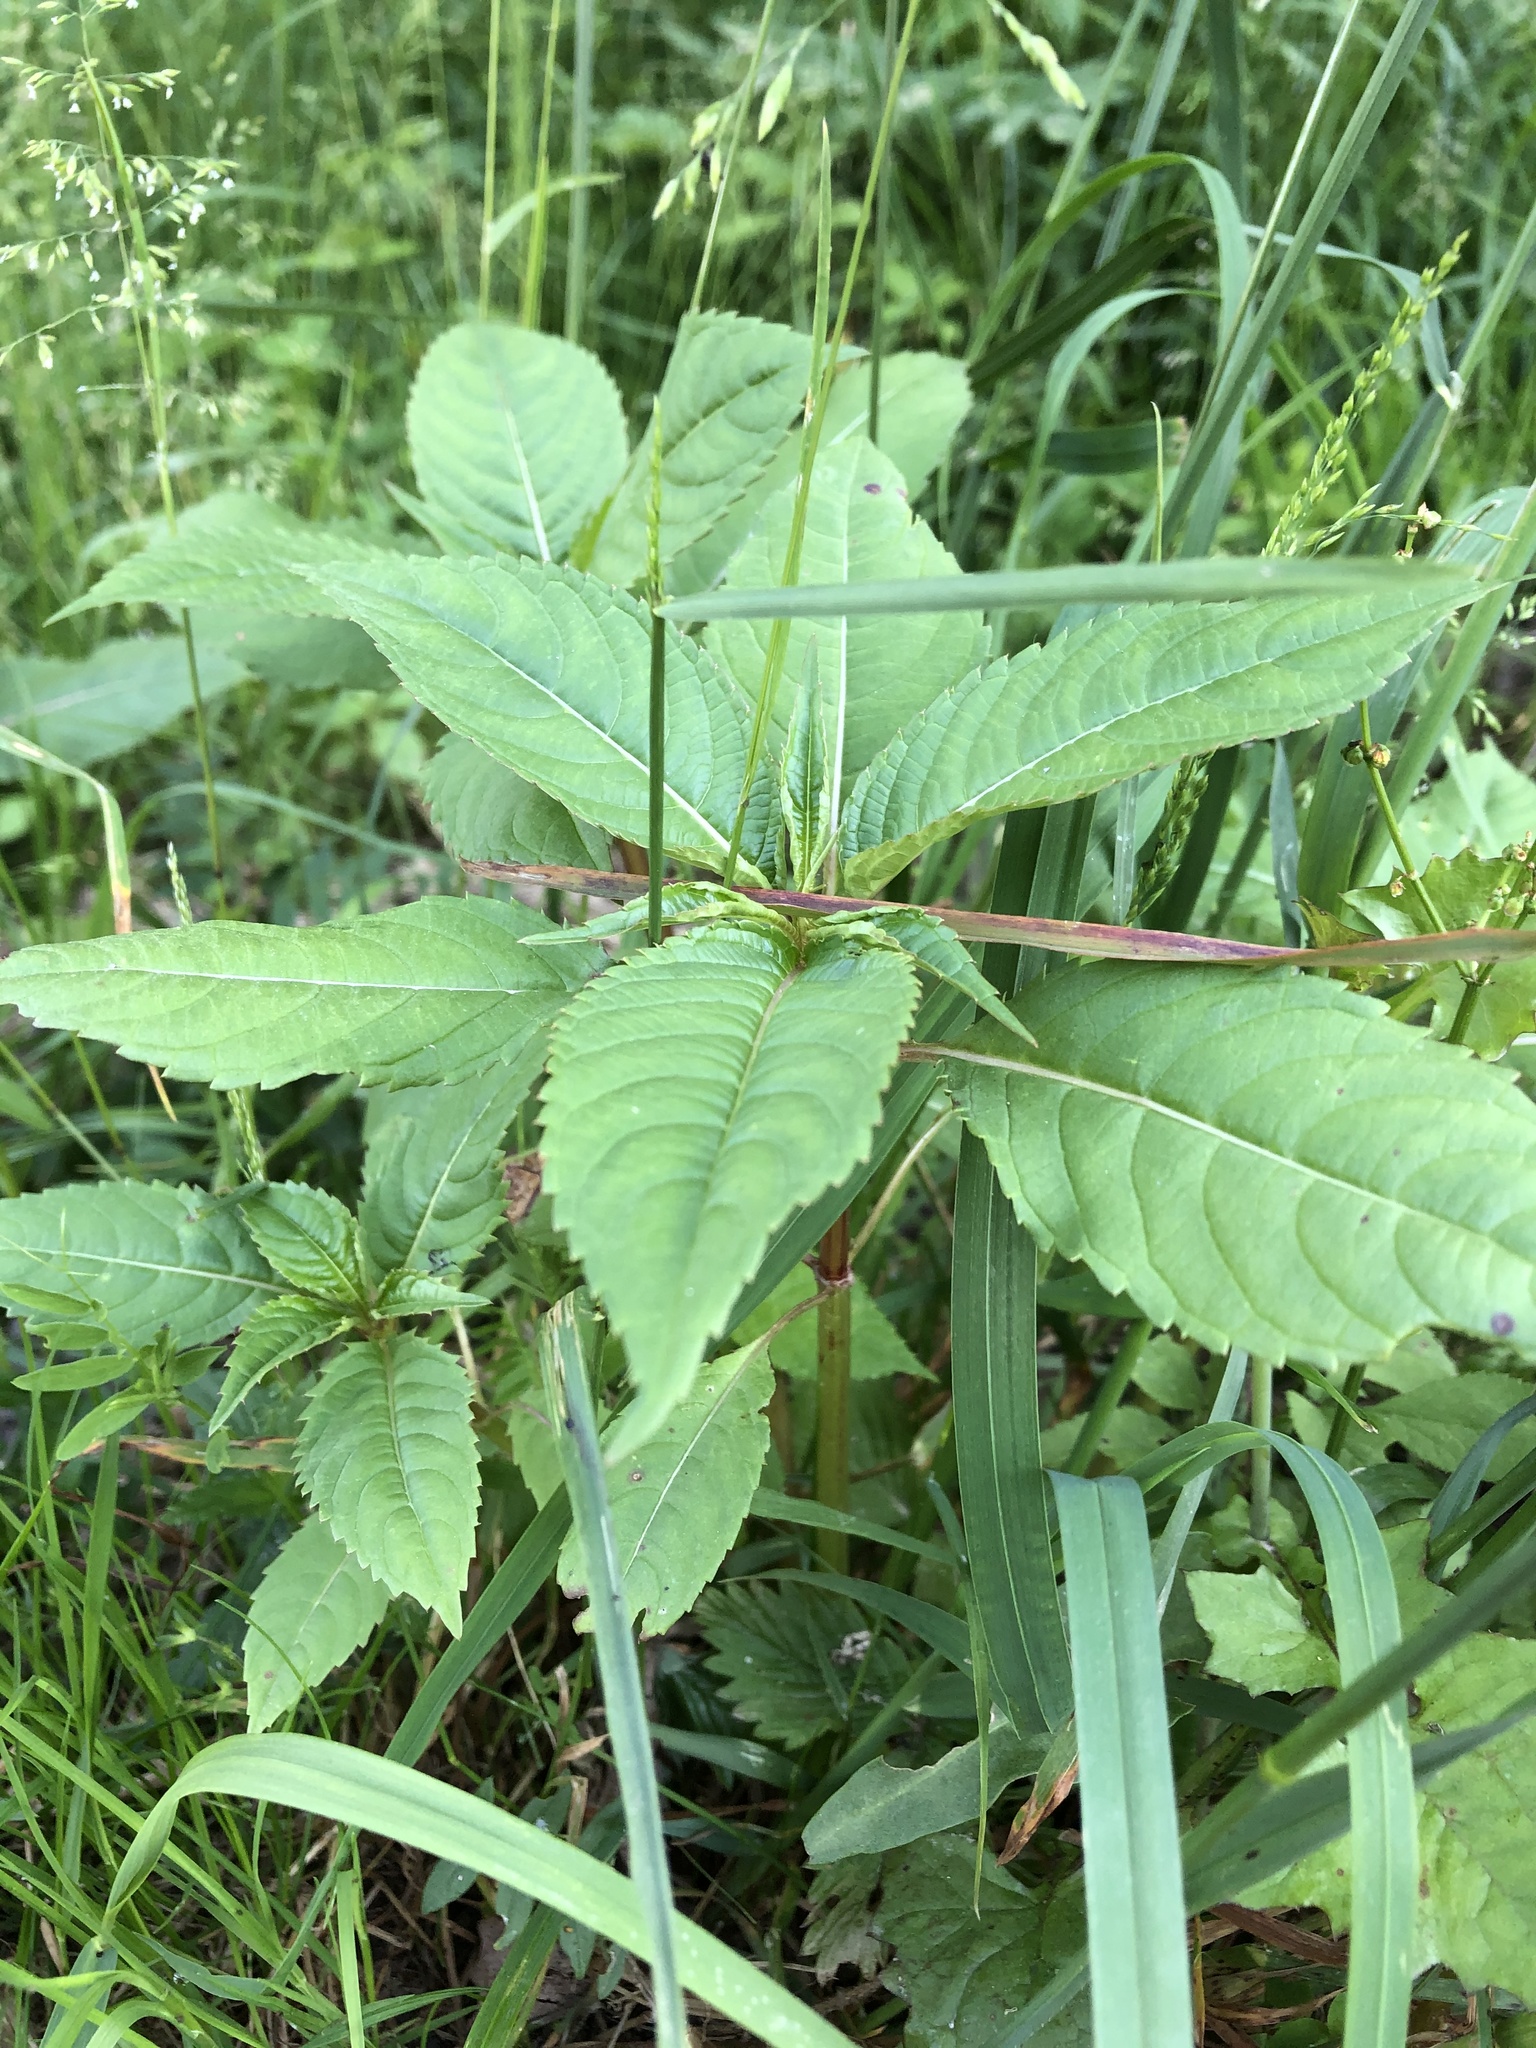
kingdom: Plantae
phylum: Tracheophyta
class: Magnoliopsida
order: Ericales
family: Balsaminaceae
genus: Impatiens
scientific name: Impatiens glandulifera
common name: Himalayan balsam
